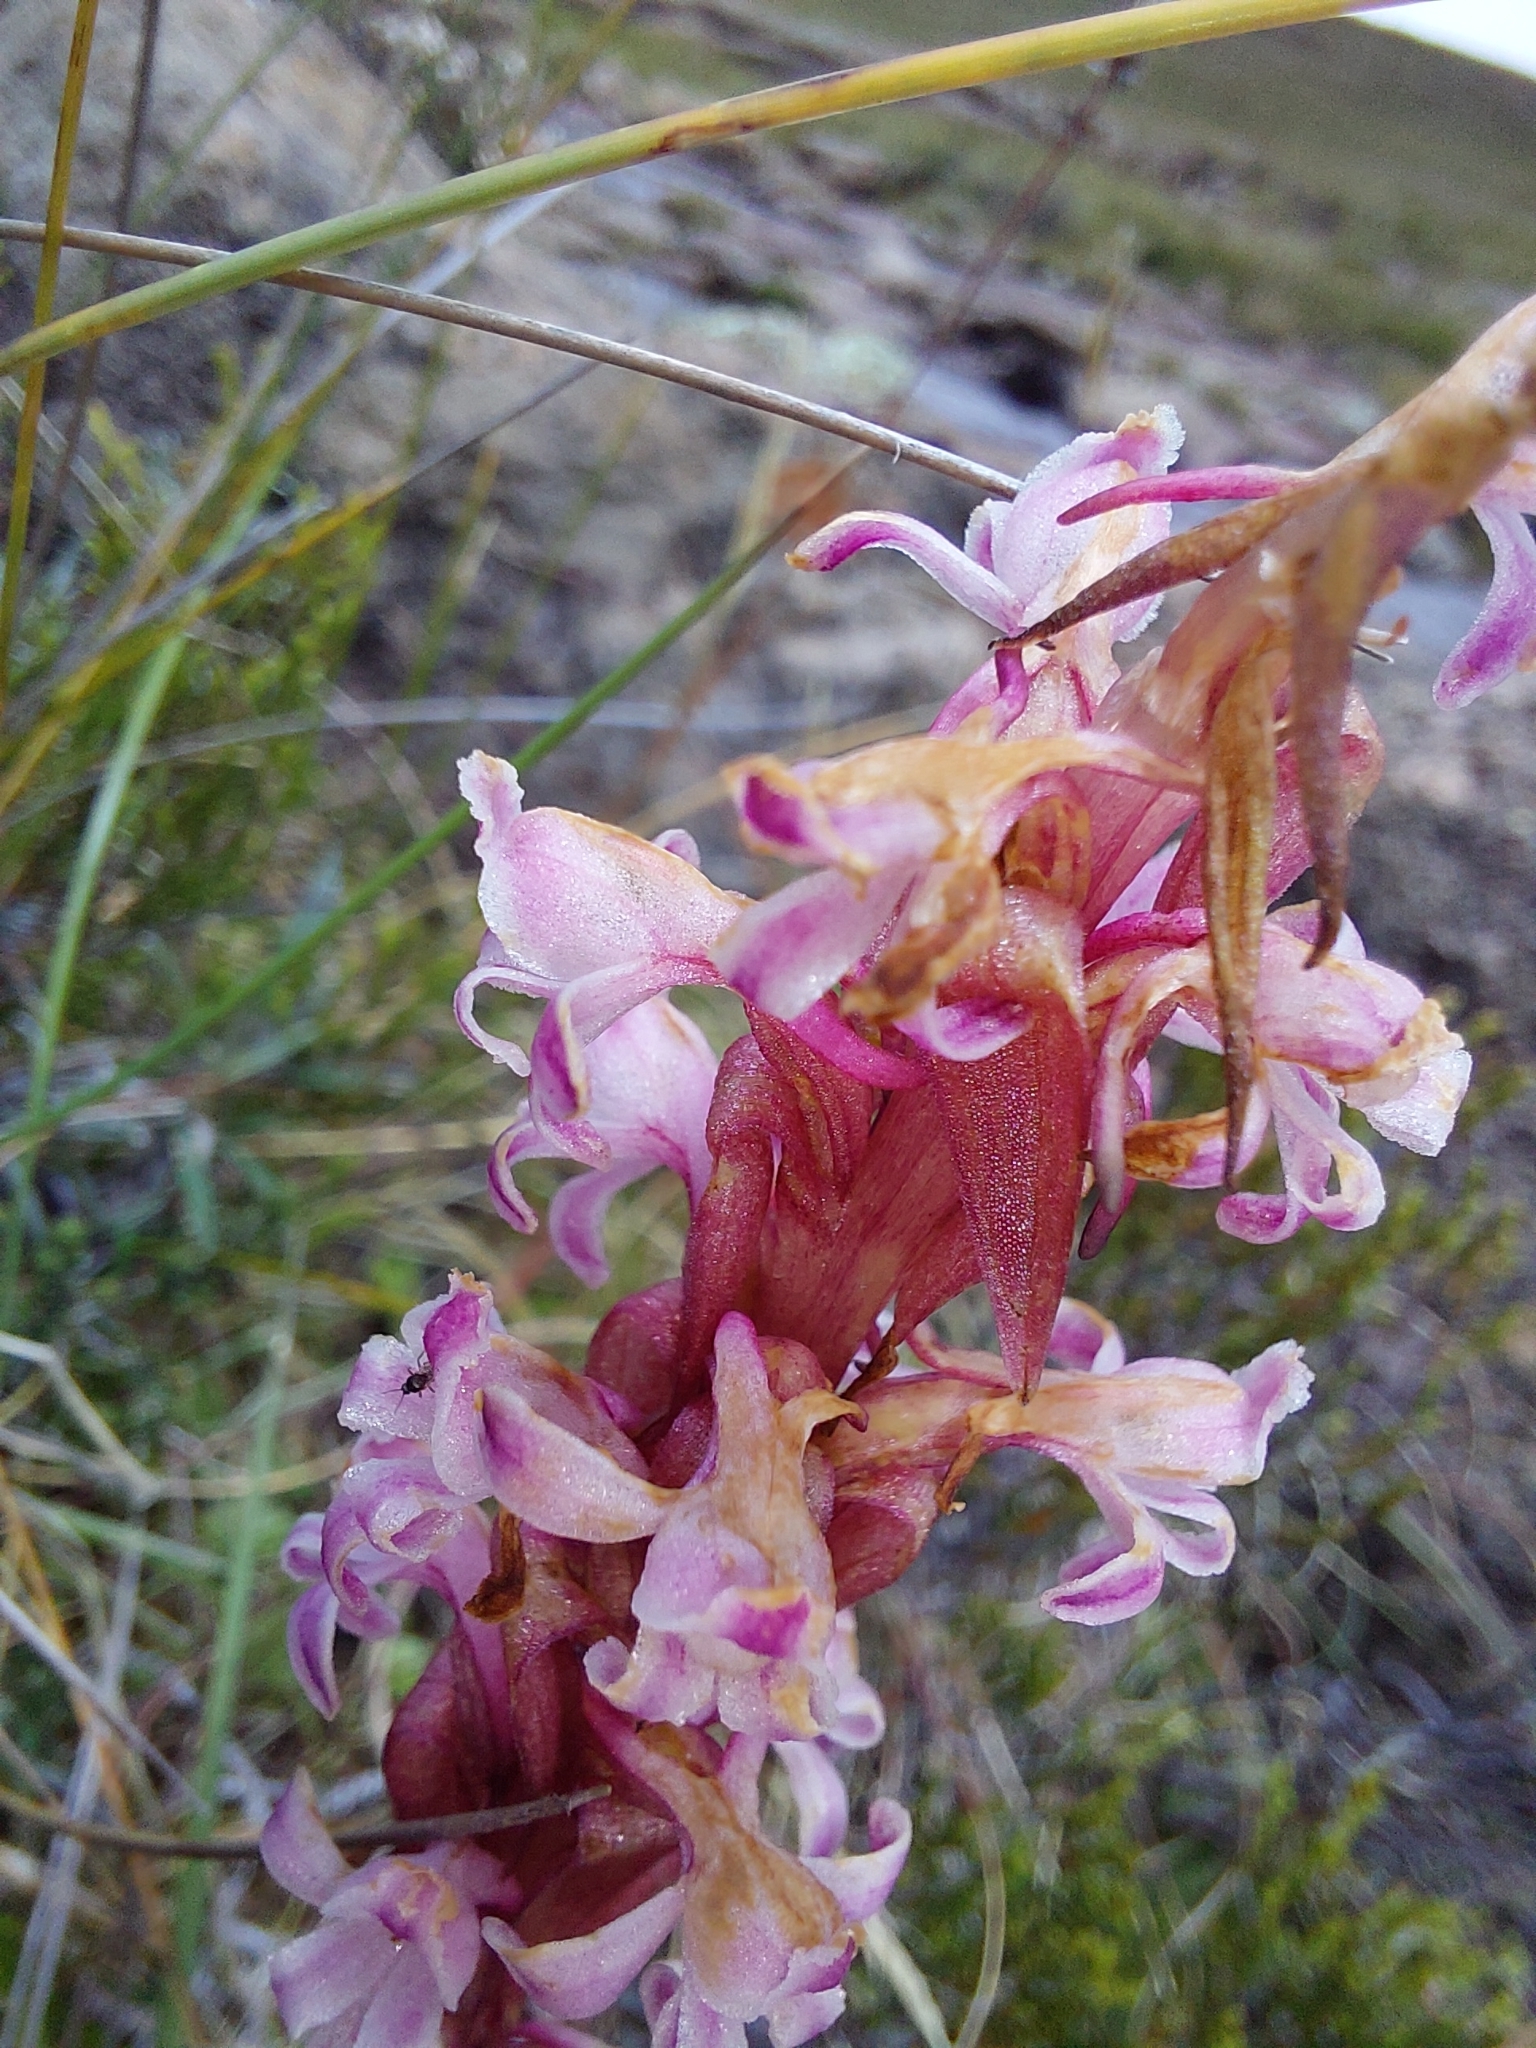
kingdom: Plantae
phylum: Tracheophyta
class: Liliopsida
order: Asparagales
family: Orchidaceae
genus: Satyrium
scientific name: Satyrium neglectum
